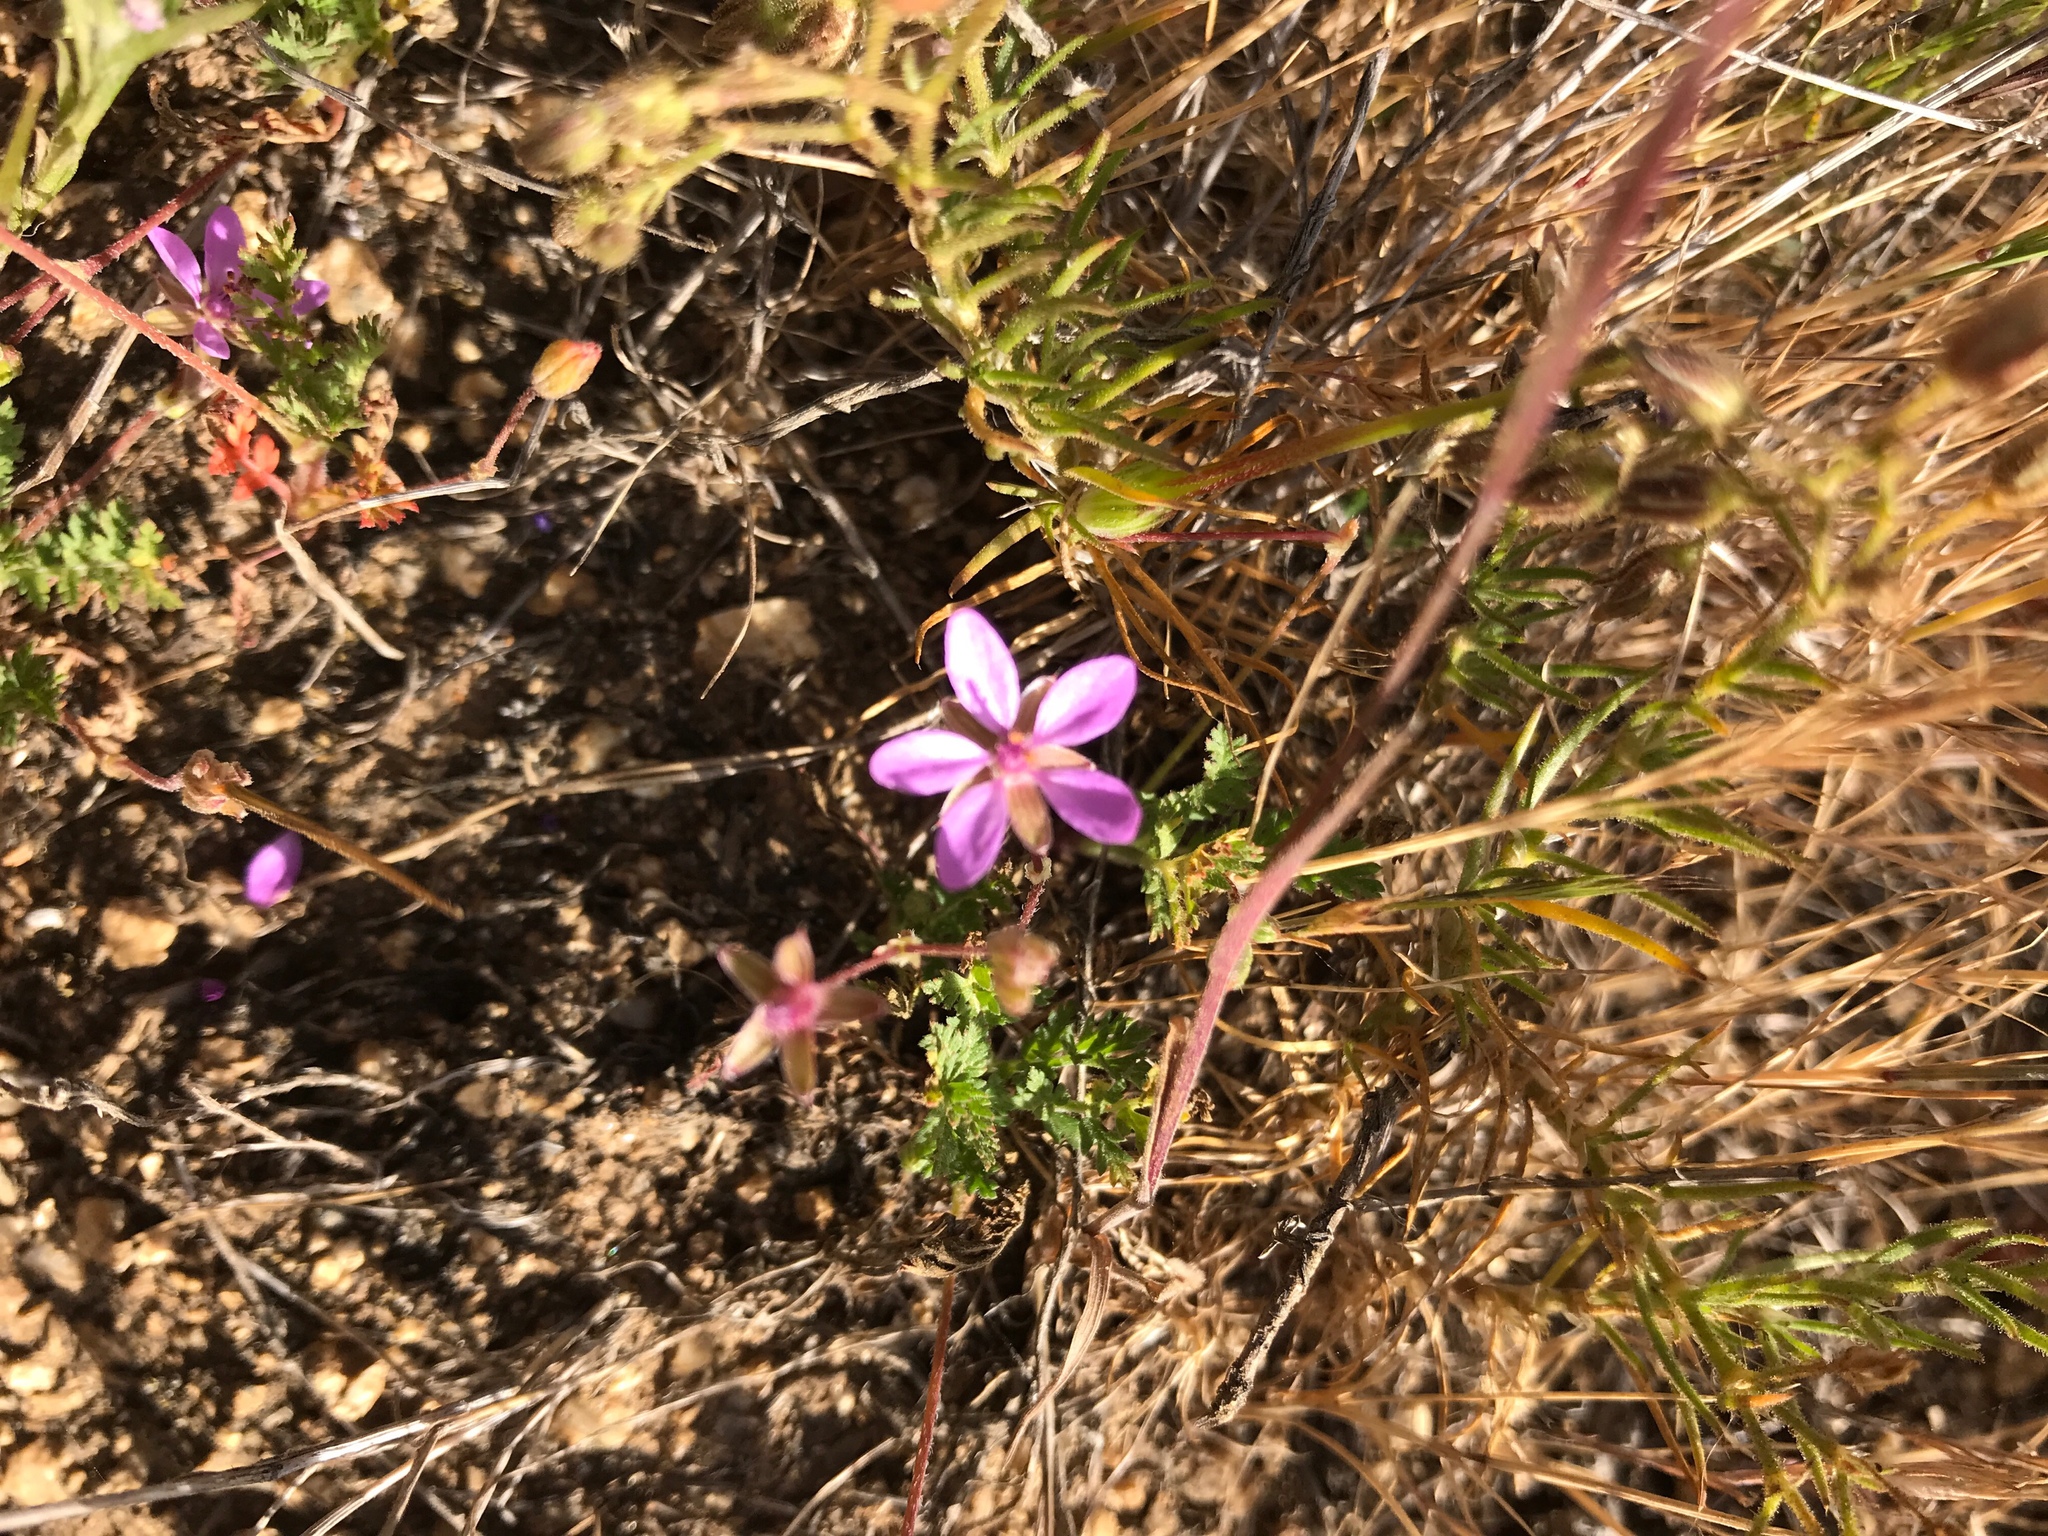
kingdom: Plantae
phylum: Tracheophyta
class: Magnoliopsida
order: Geraniales
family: Geraniaceae
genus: Erodium
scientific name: Erodium cicutarium
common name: Common stork's-bill
